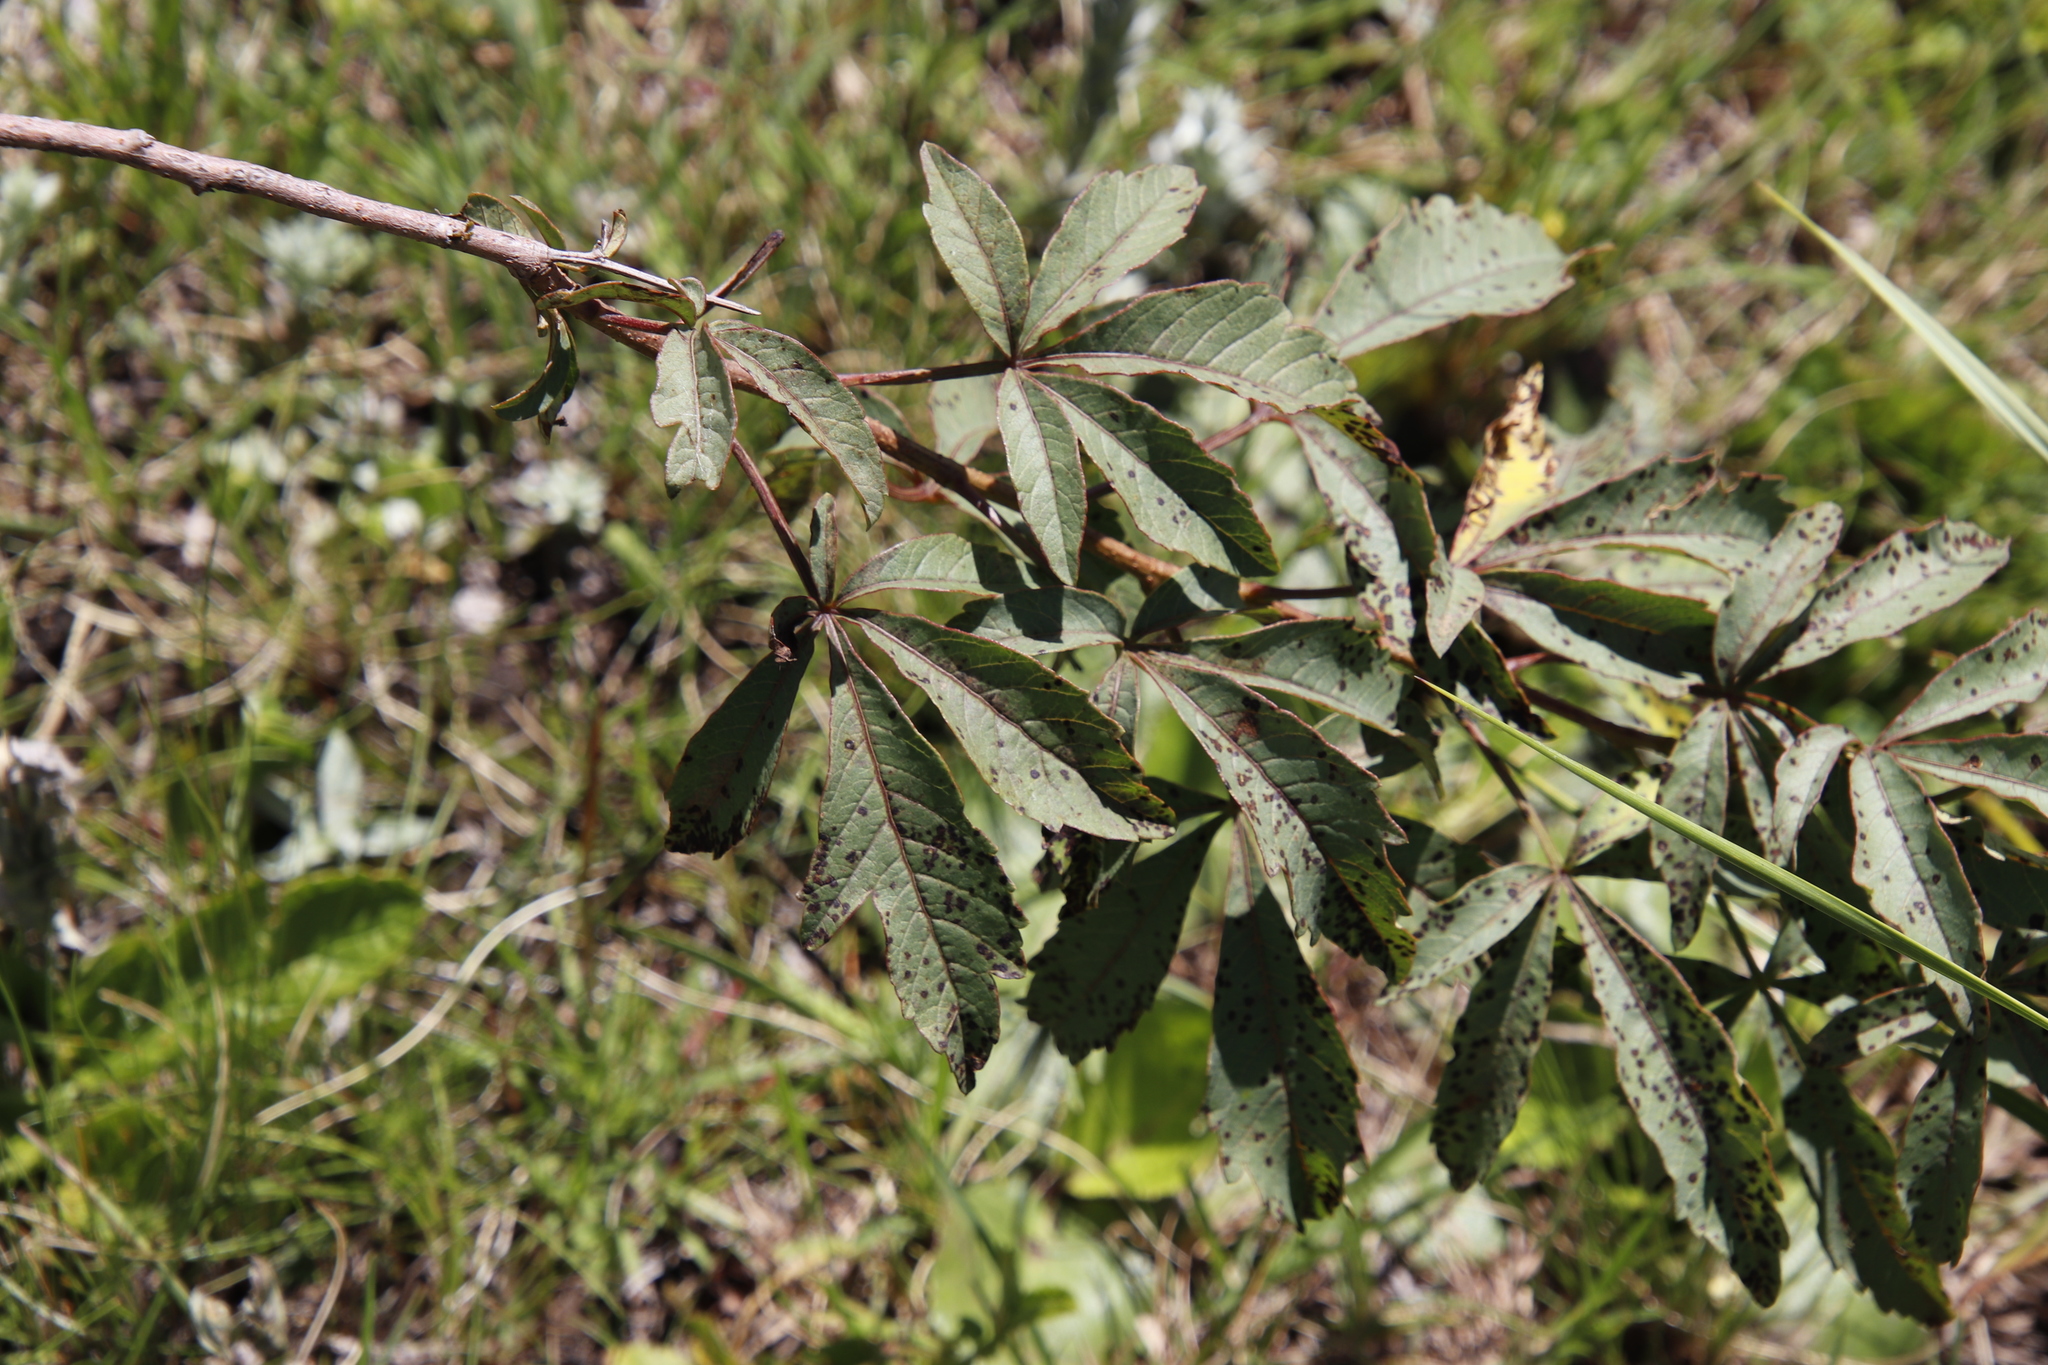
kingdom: Plantae
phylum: Tracheophyta
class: Magnoliopsida
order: Sapindales
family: Anacardiaceae
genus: Searsia
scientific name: Searsia montana
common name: Drakensberg karee
